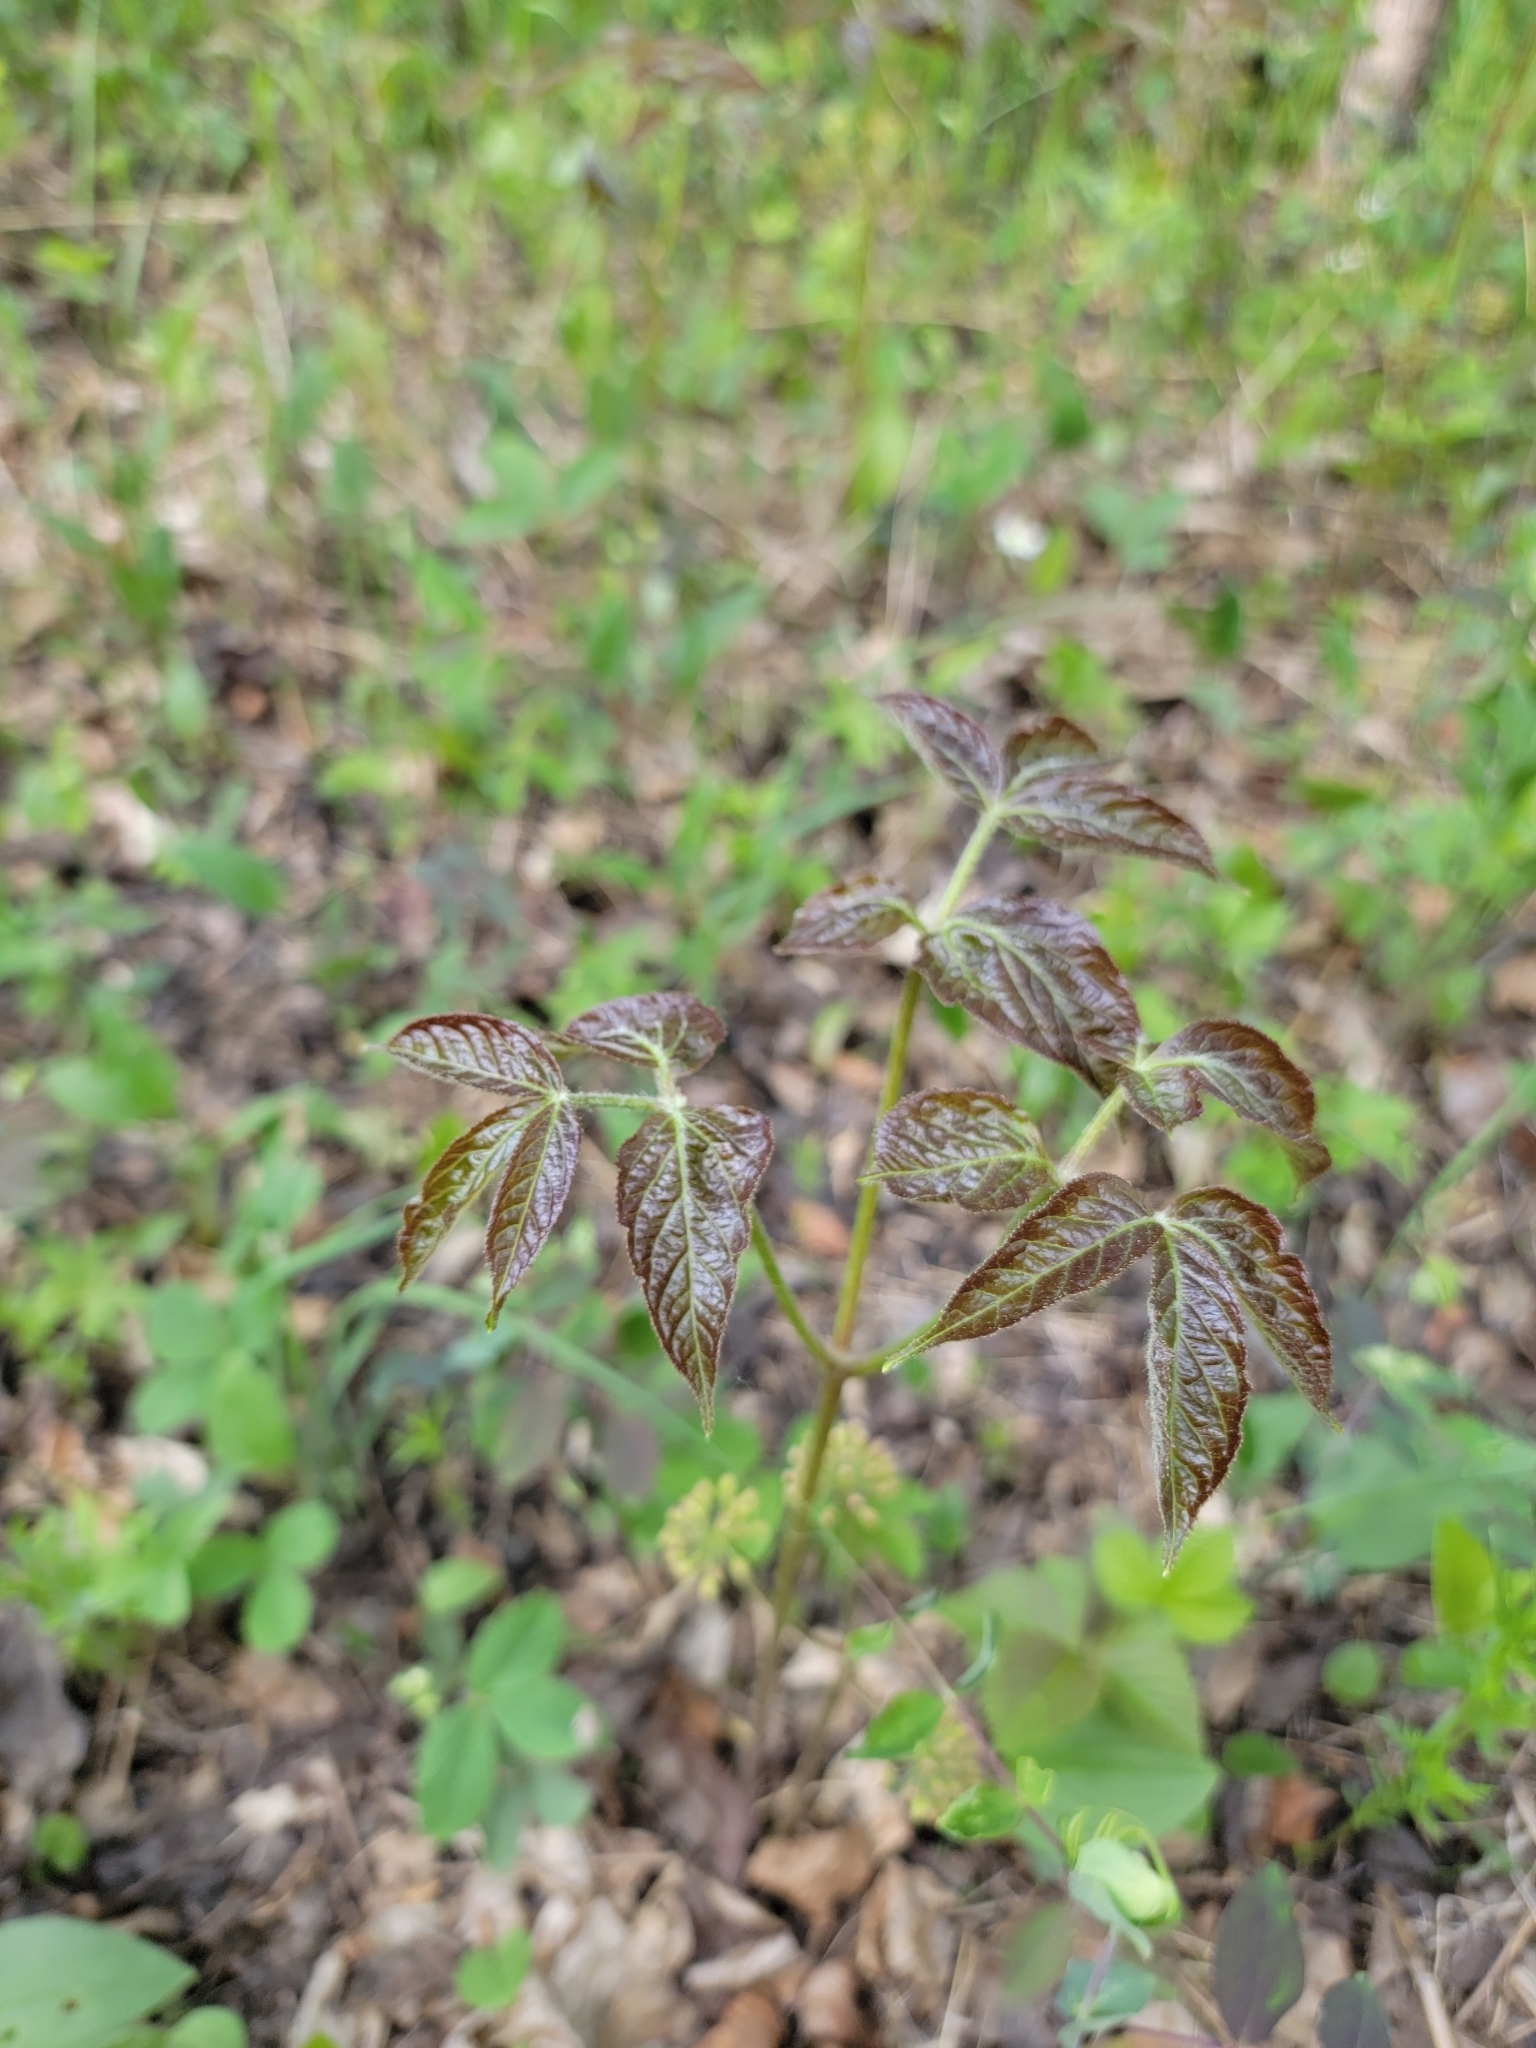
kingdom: Plantae
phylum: Tracheophyta
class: Magnoliopsida
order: Apiales
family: Araliaceae
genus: Aralia
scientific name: Aralia nudicaulis
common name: Wild sarsaparilla
